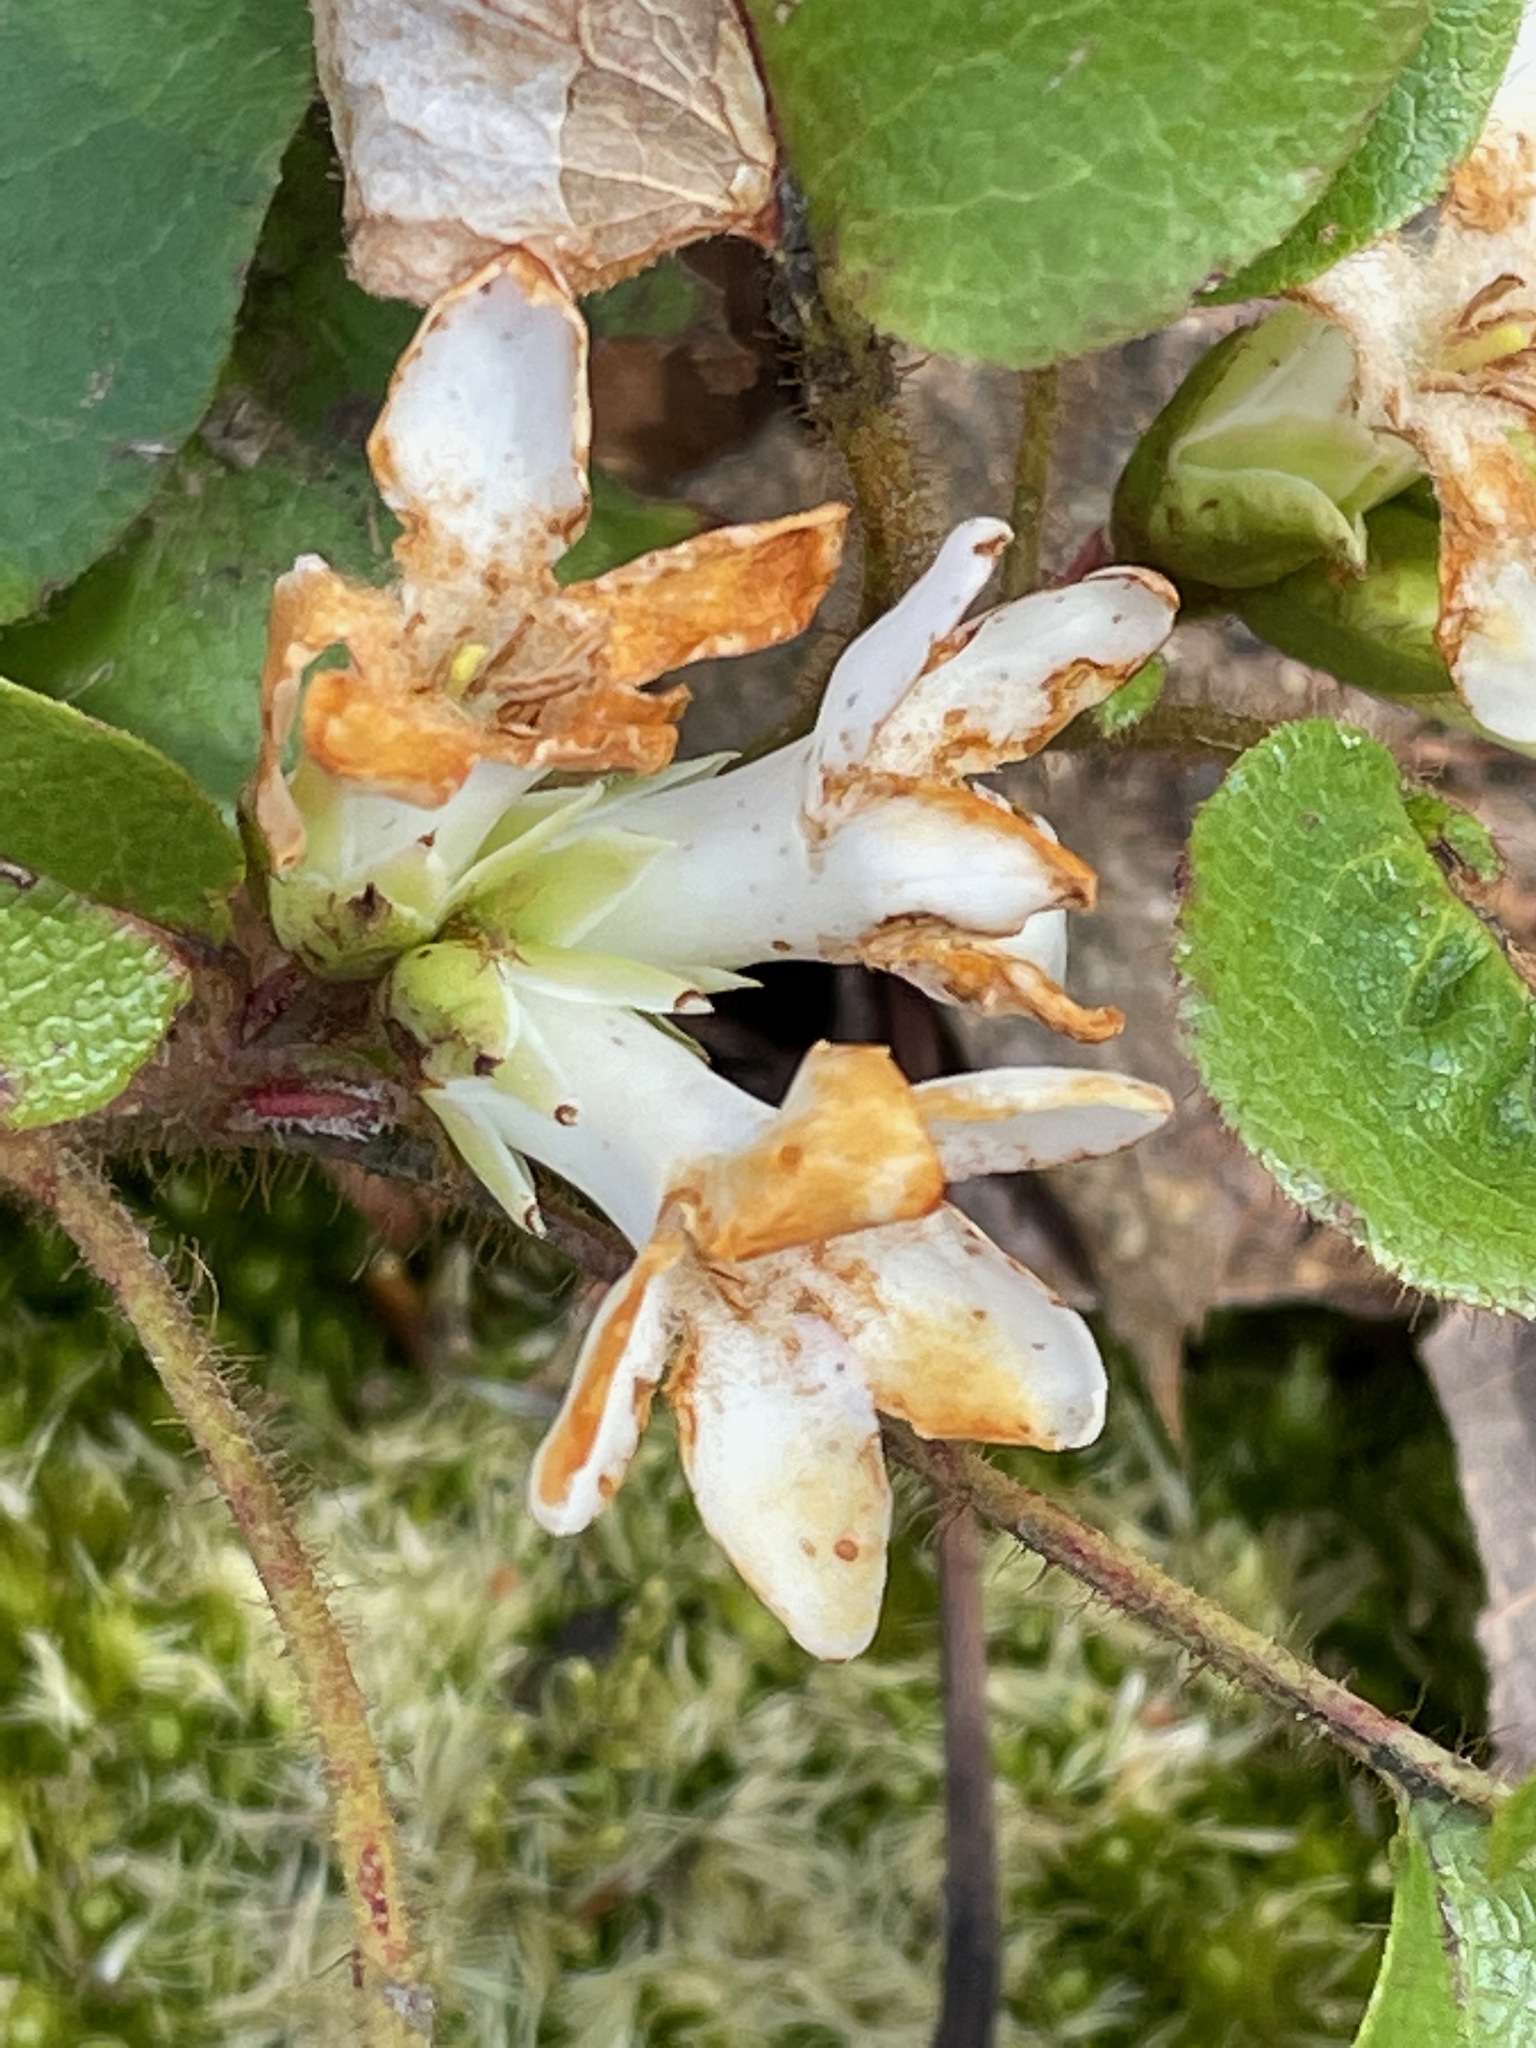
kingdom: Plantae
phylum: Tracheophyta
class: Magnoliopsida
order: Ericales
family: Ericaceae
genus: Epigaea
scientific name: Epigaea repens
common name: Gravelroot
